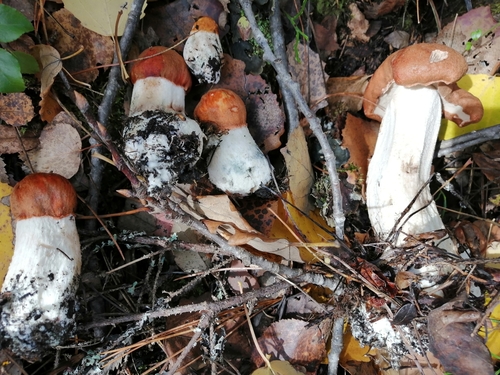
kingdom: Fungi
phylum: Basidiomycota
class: Agaricomycetes
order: Boletales
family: Boletaceae
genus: Leccinum
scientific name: Leccinum
